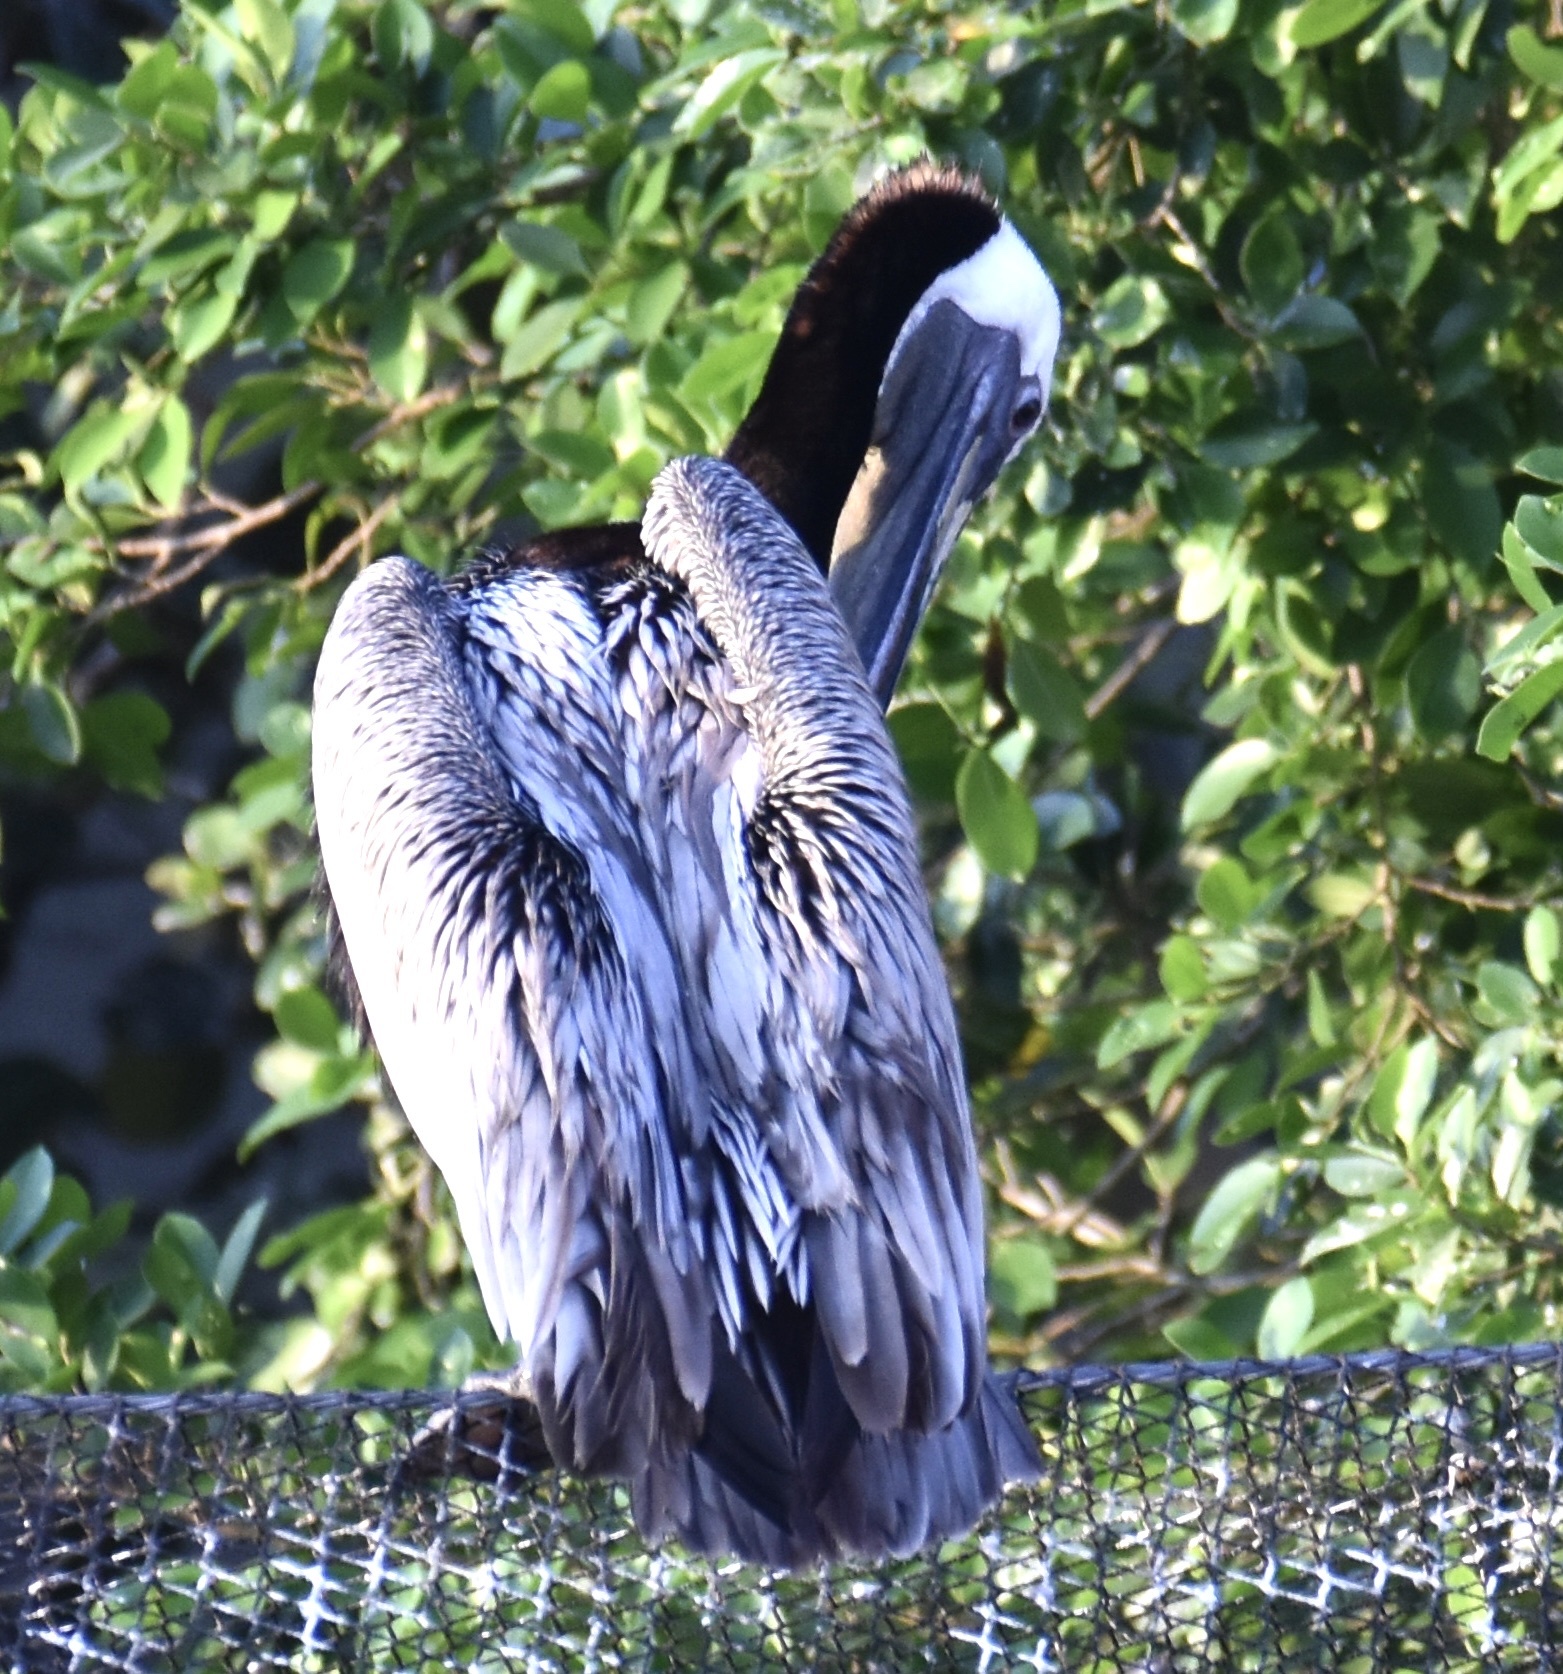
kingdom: Animalia
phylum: Chordata
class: Aves
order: Pelecaniformes
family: Pelecanidae
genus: Pelecanus
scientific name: Pelecanus occidentalis
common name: Brown pelican
